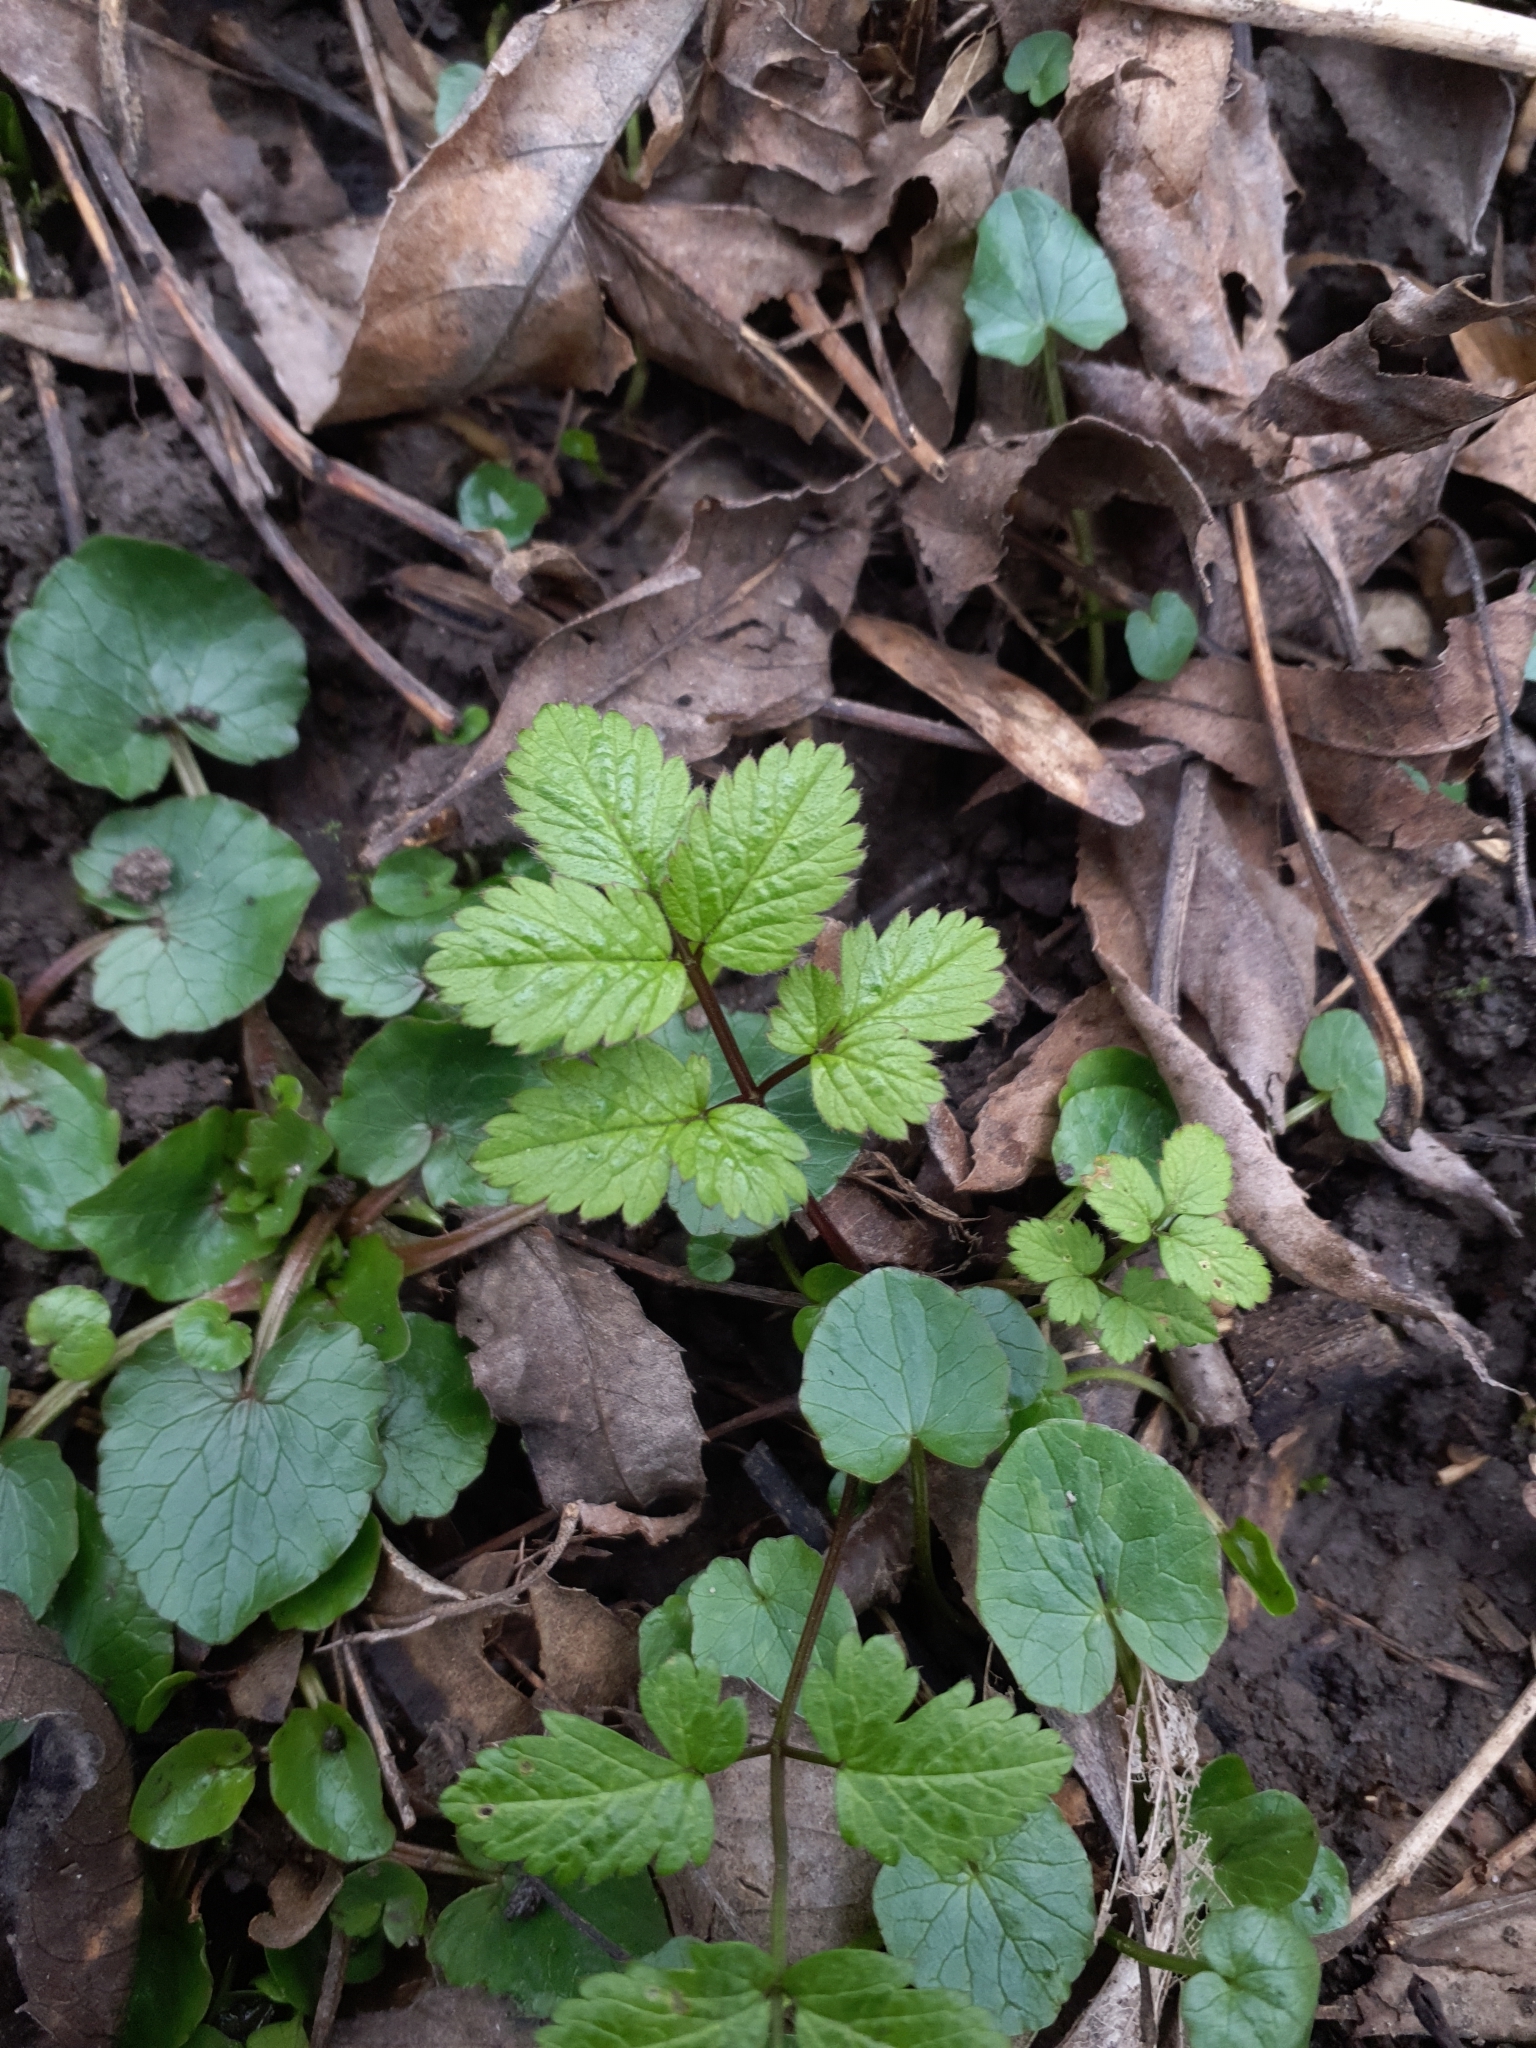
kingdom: Plantae
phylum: Tracheophyta
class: Magnoliopsida
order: Apiales
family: Apiaceae
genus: Chaerophyllum
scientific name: Chaerophyllum aromaticum
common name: Broadleaf chervil
